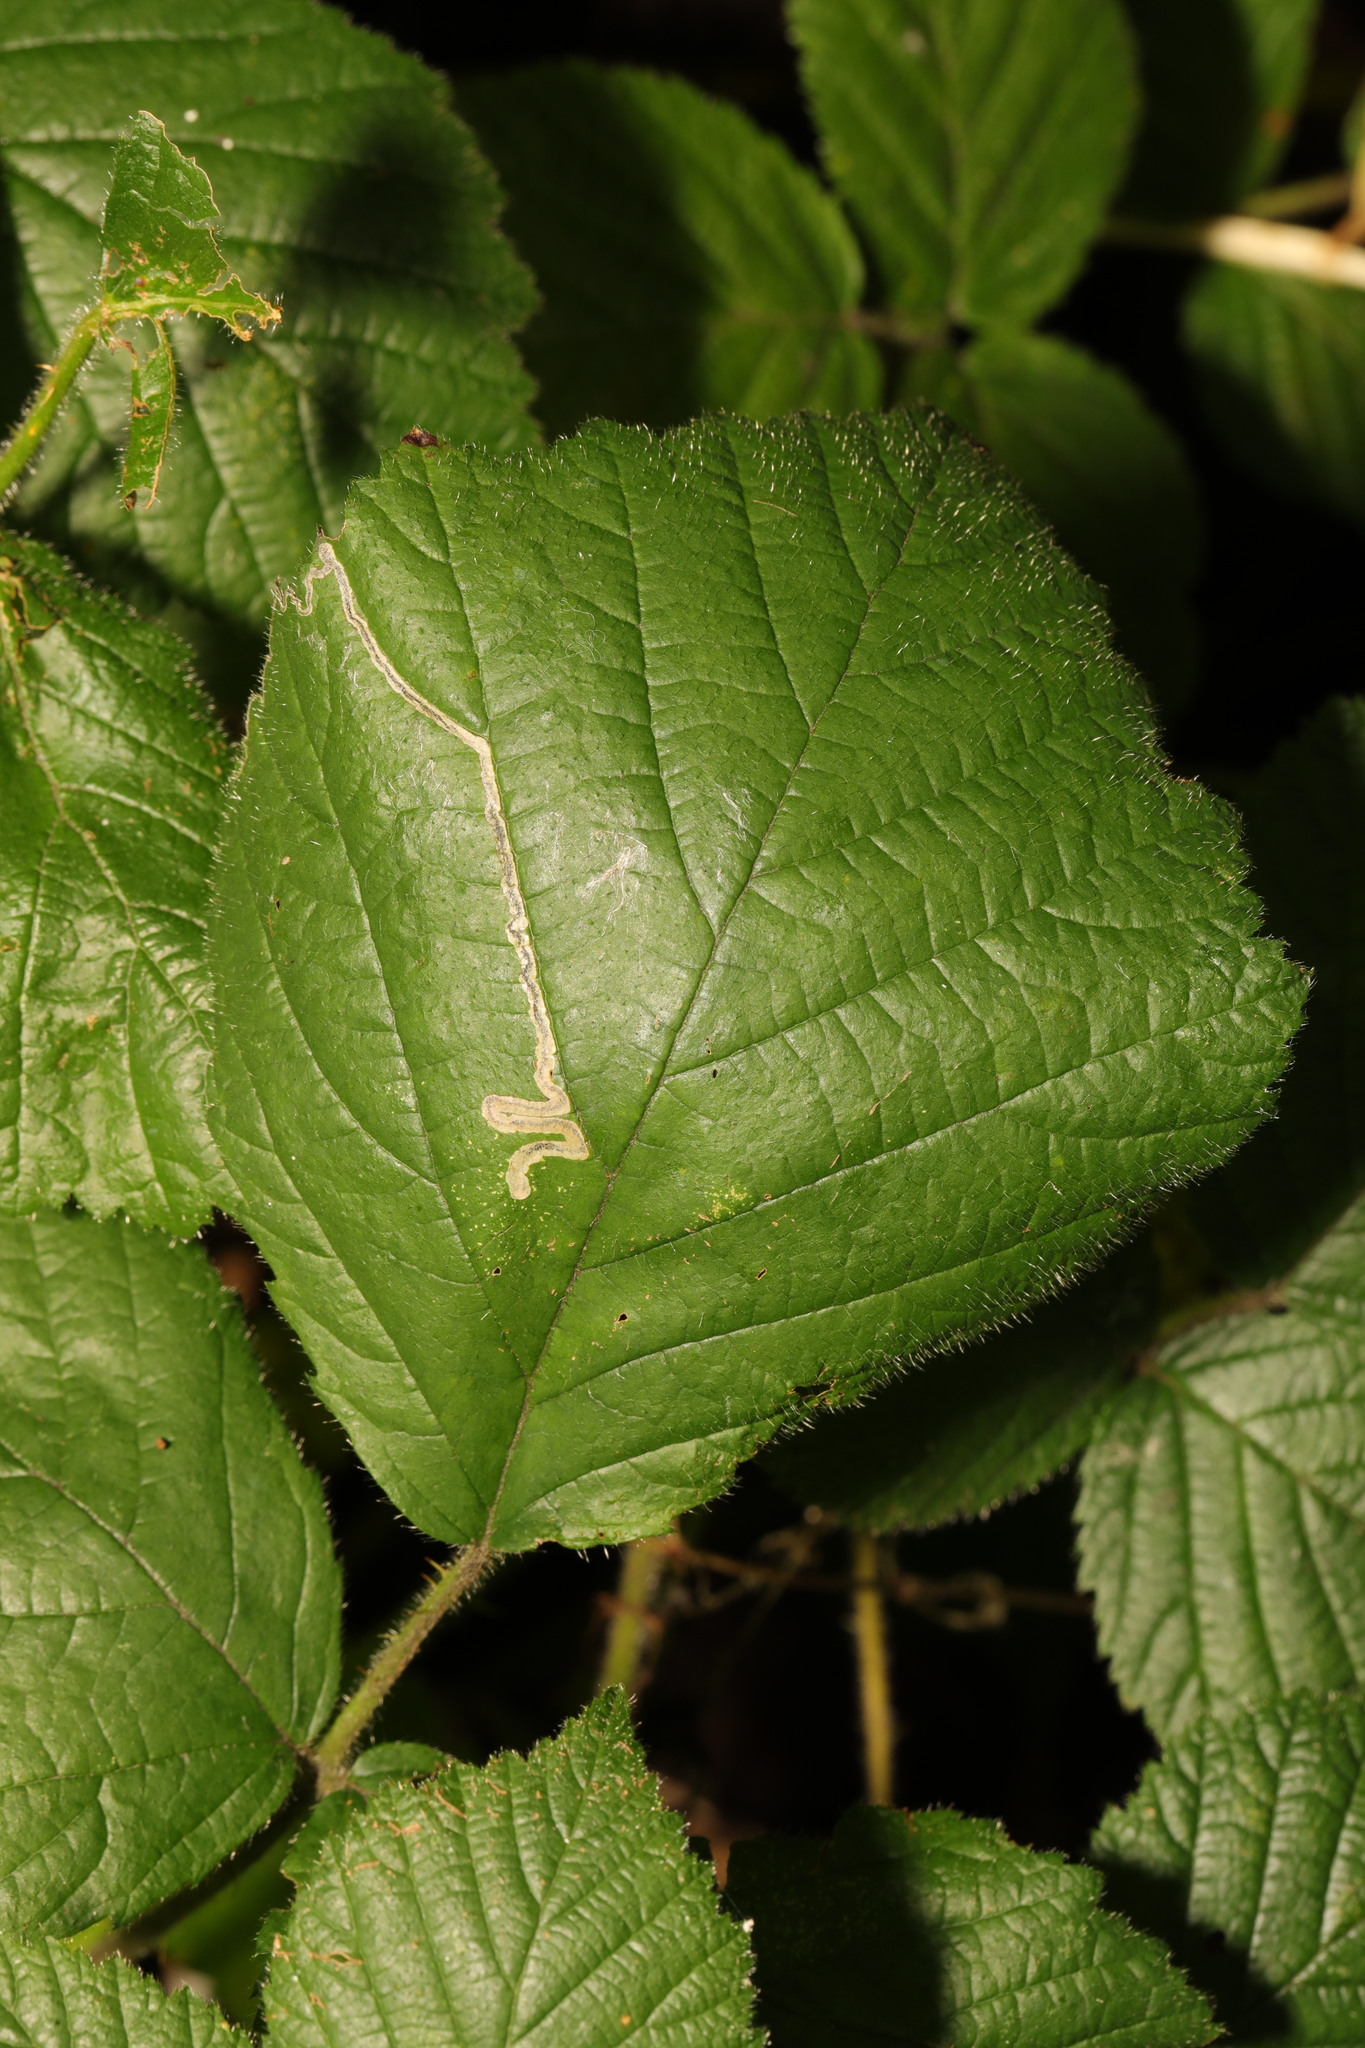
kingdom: Animalia
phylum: Arthropoda
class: Insecta
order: Lepidoptera
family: Nepticulidae
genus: Stigmella
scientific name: Stigmella aurella
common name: Golden pigmy
